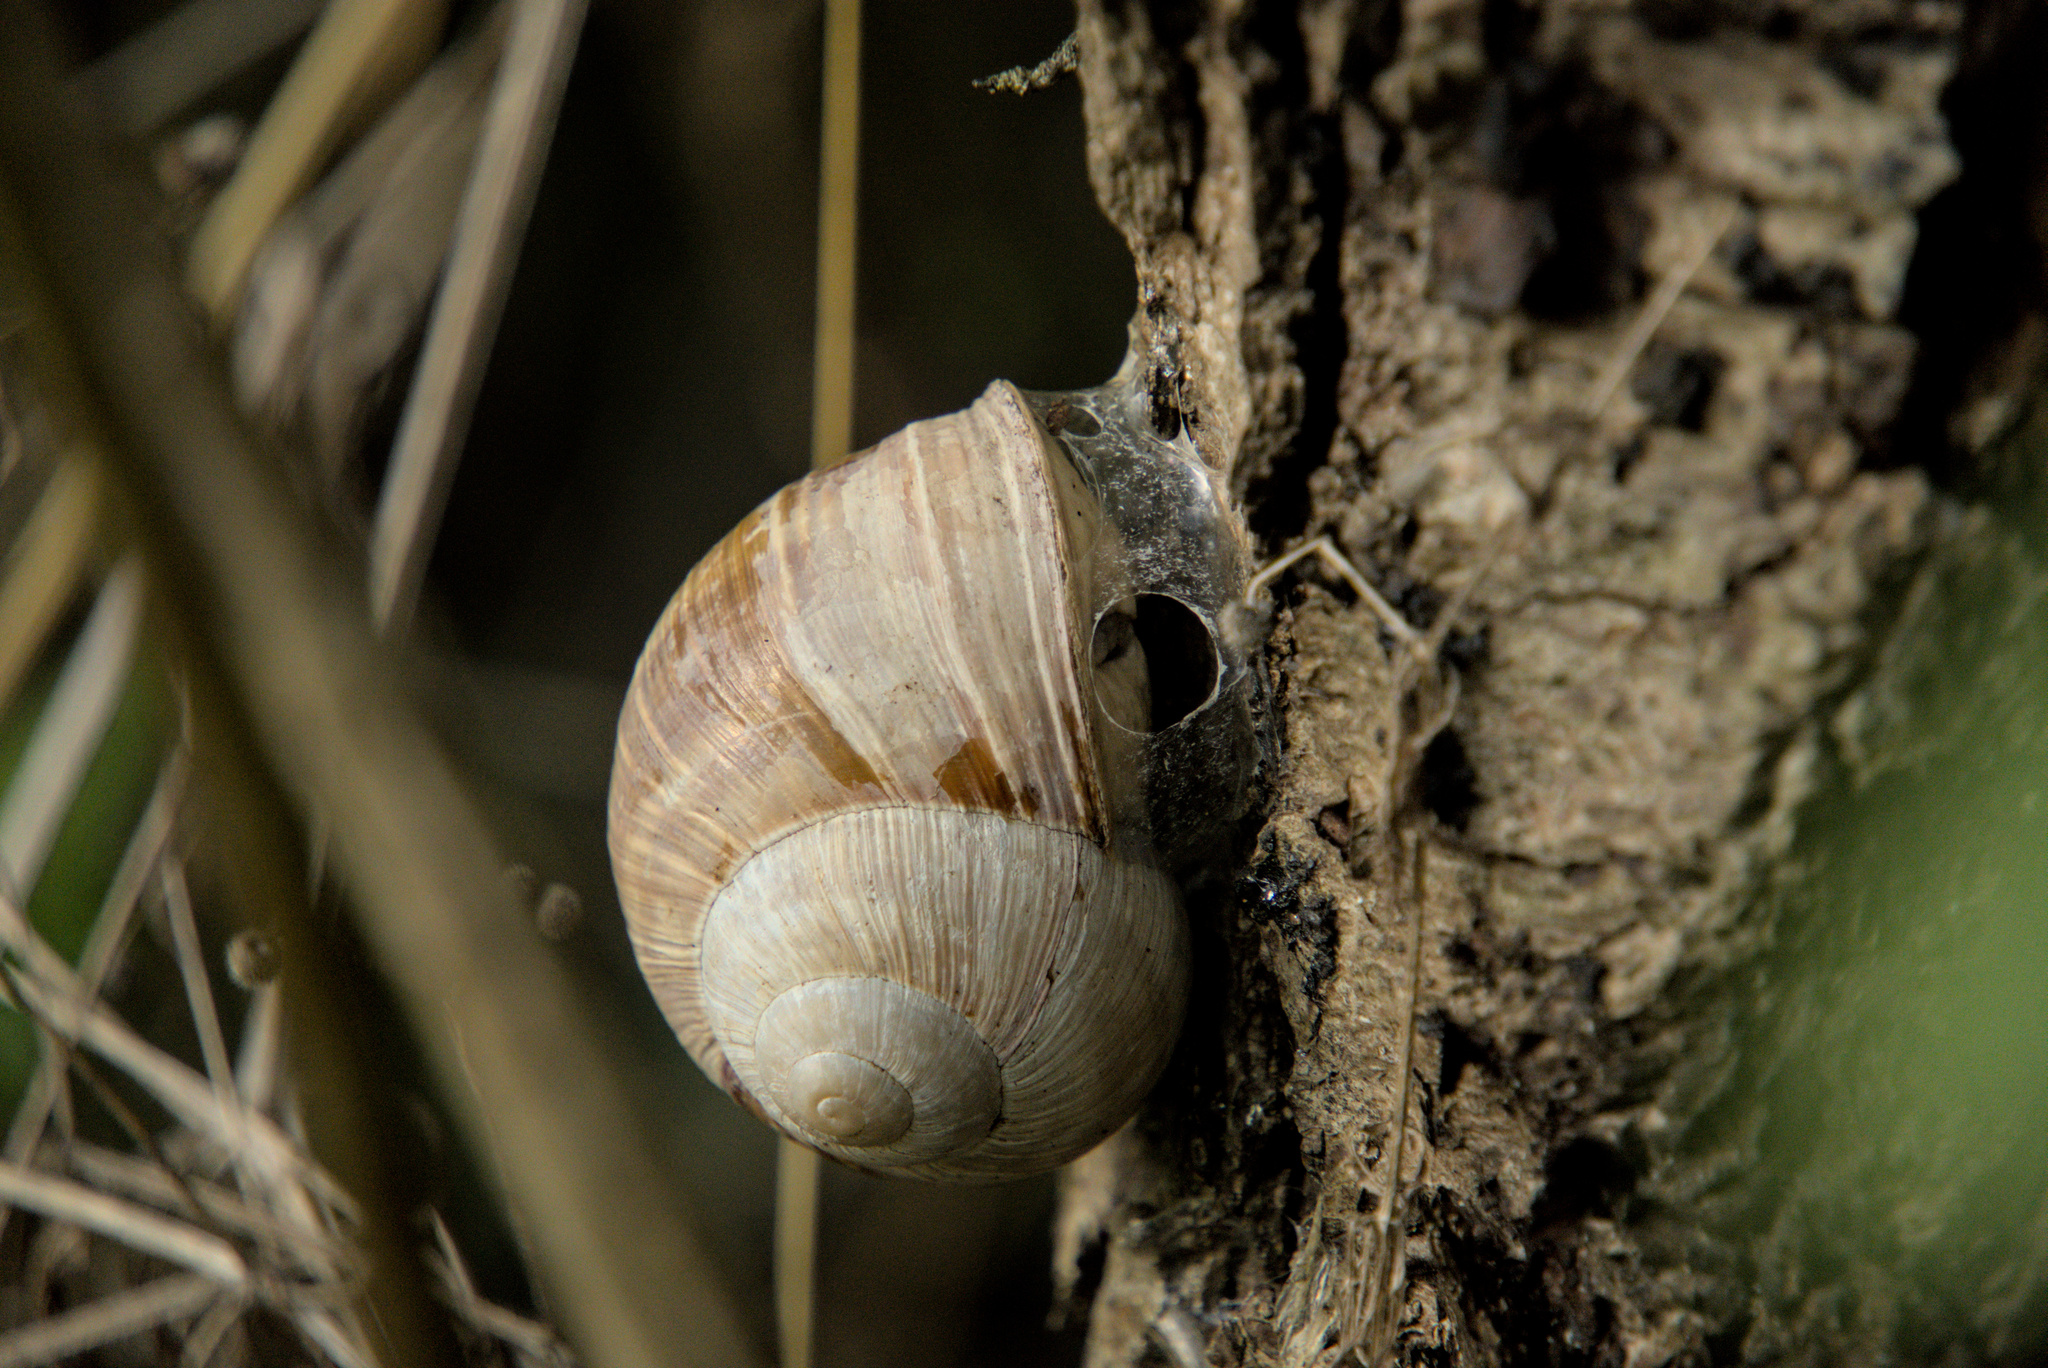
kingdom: Animalia
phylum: Mollusca
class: Gastropoda
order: Stylommatophora
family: Helicidae
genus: Helix
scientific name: Helix pomatia
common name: Roman snail
